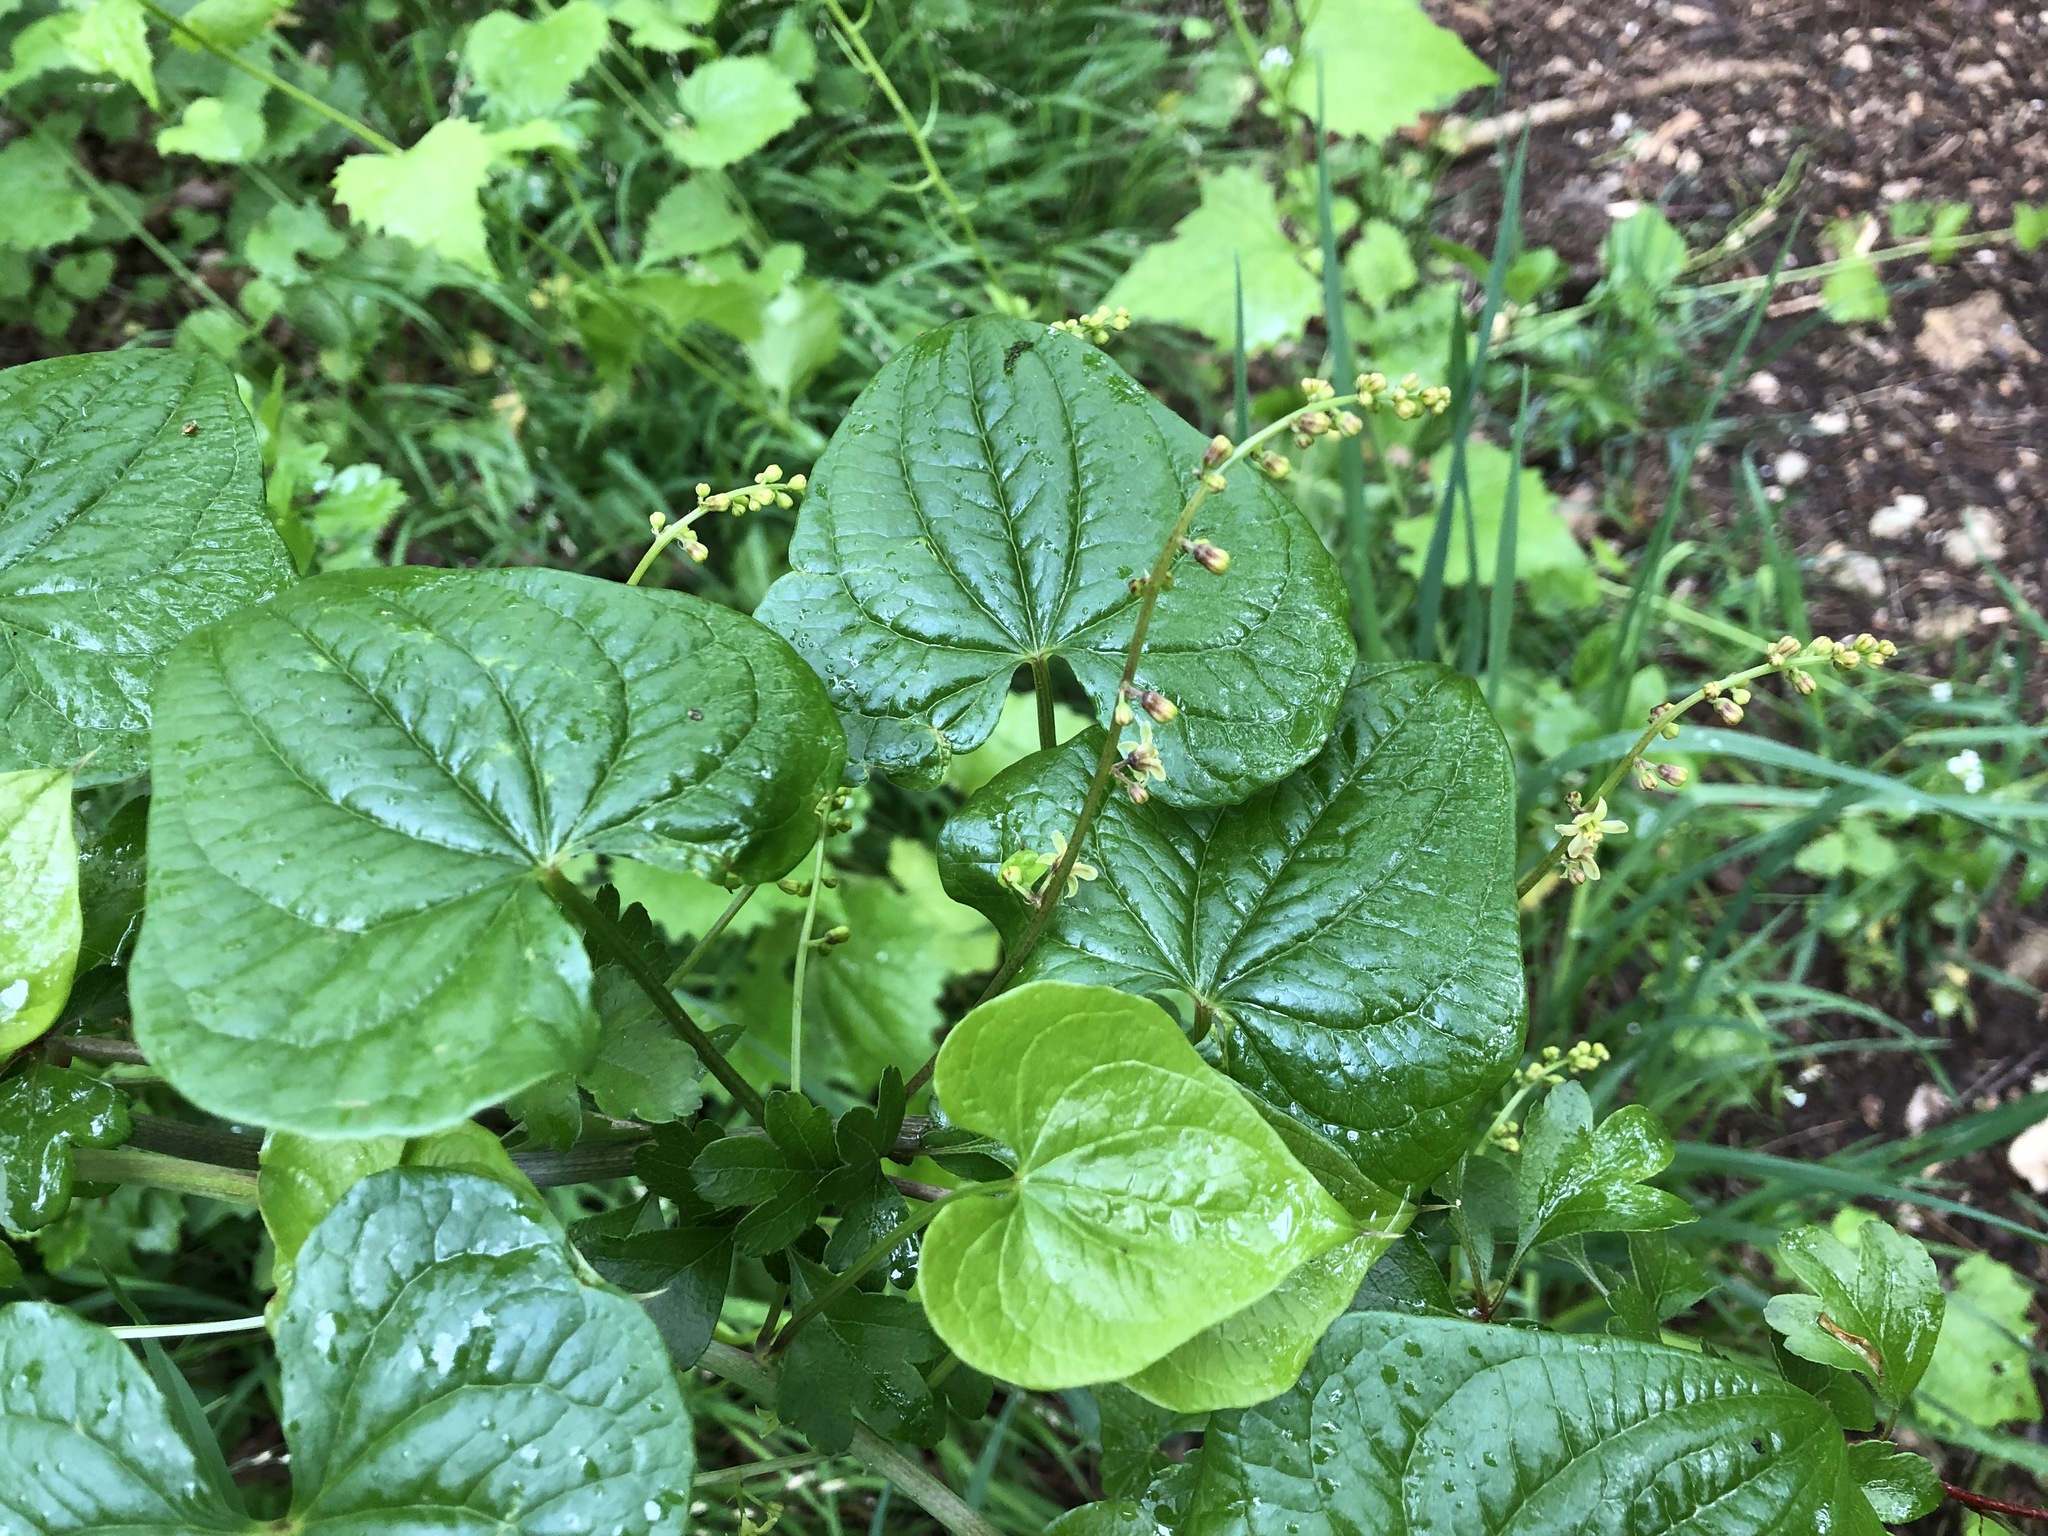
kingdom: Plantae
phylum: Tracheophyta
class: Liliopsida
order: Dioscoreales
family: Dioscoreaceae
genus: Dioscorea
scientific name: Dioscorea communis
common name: Black-bindweed
